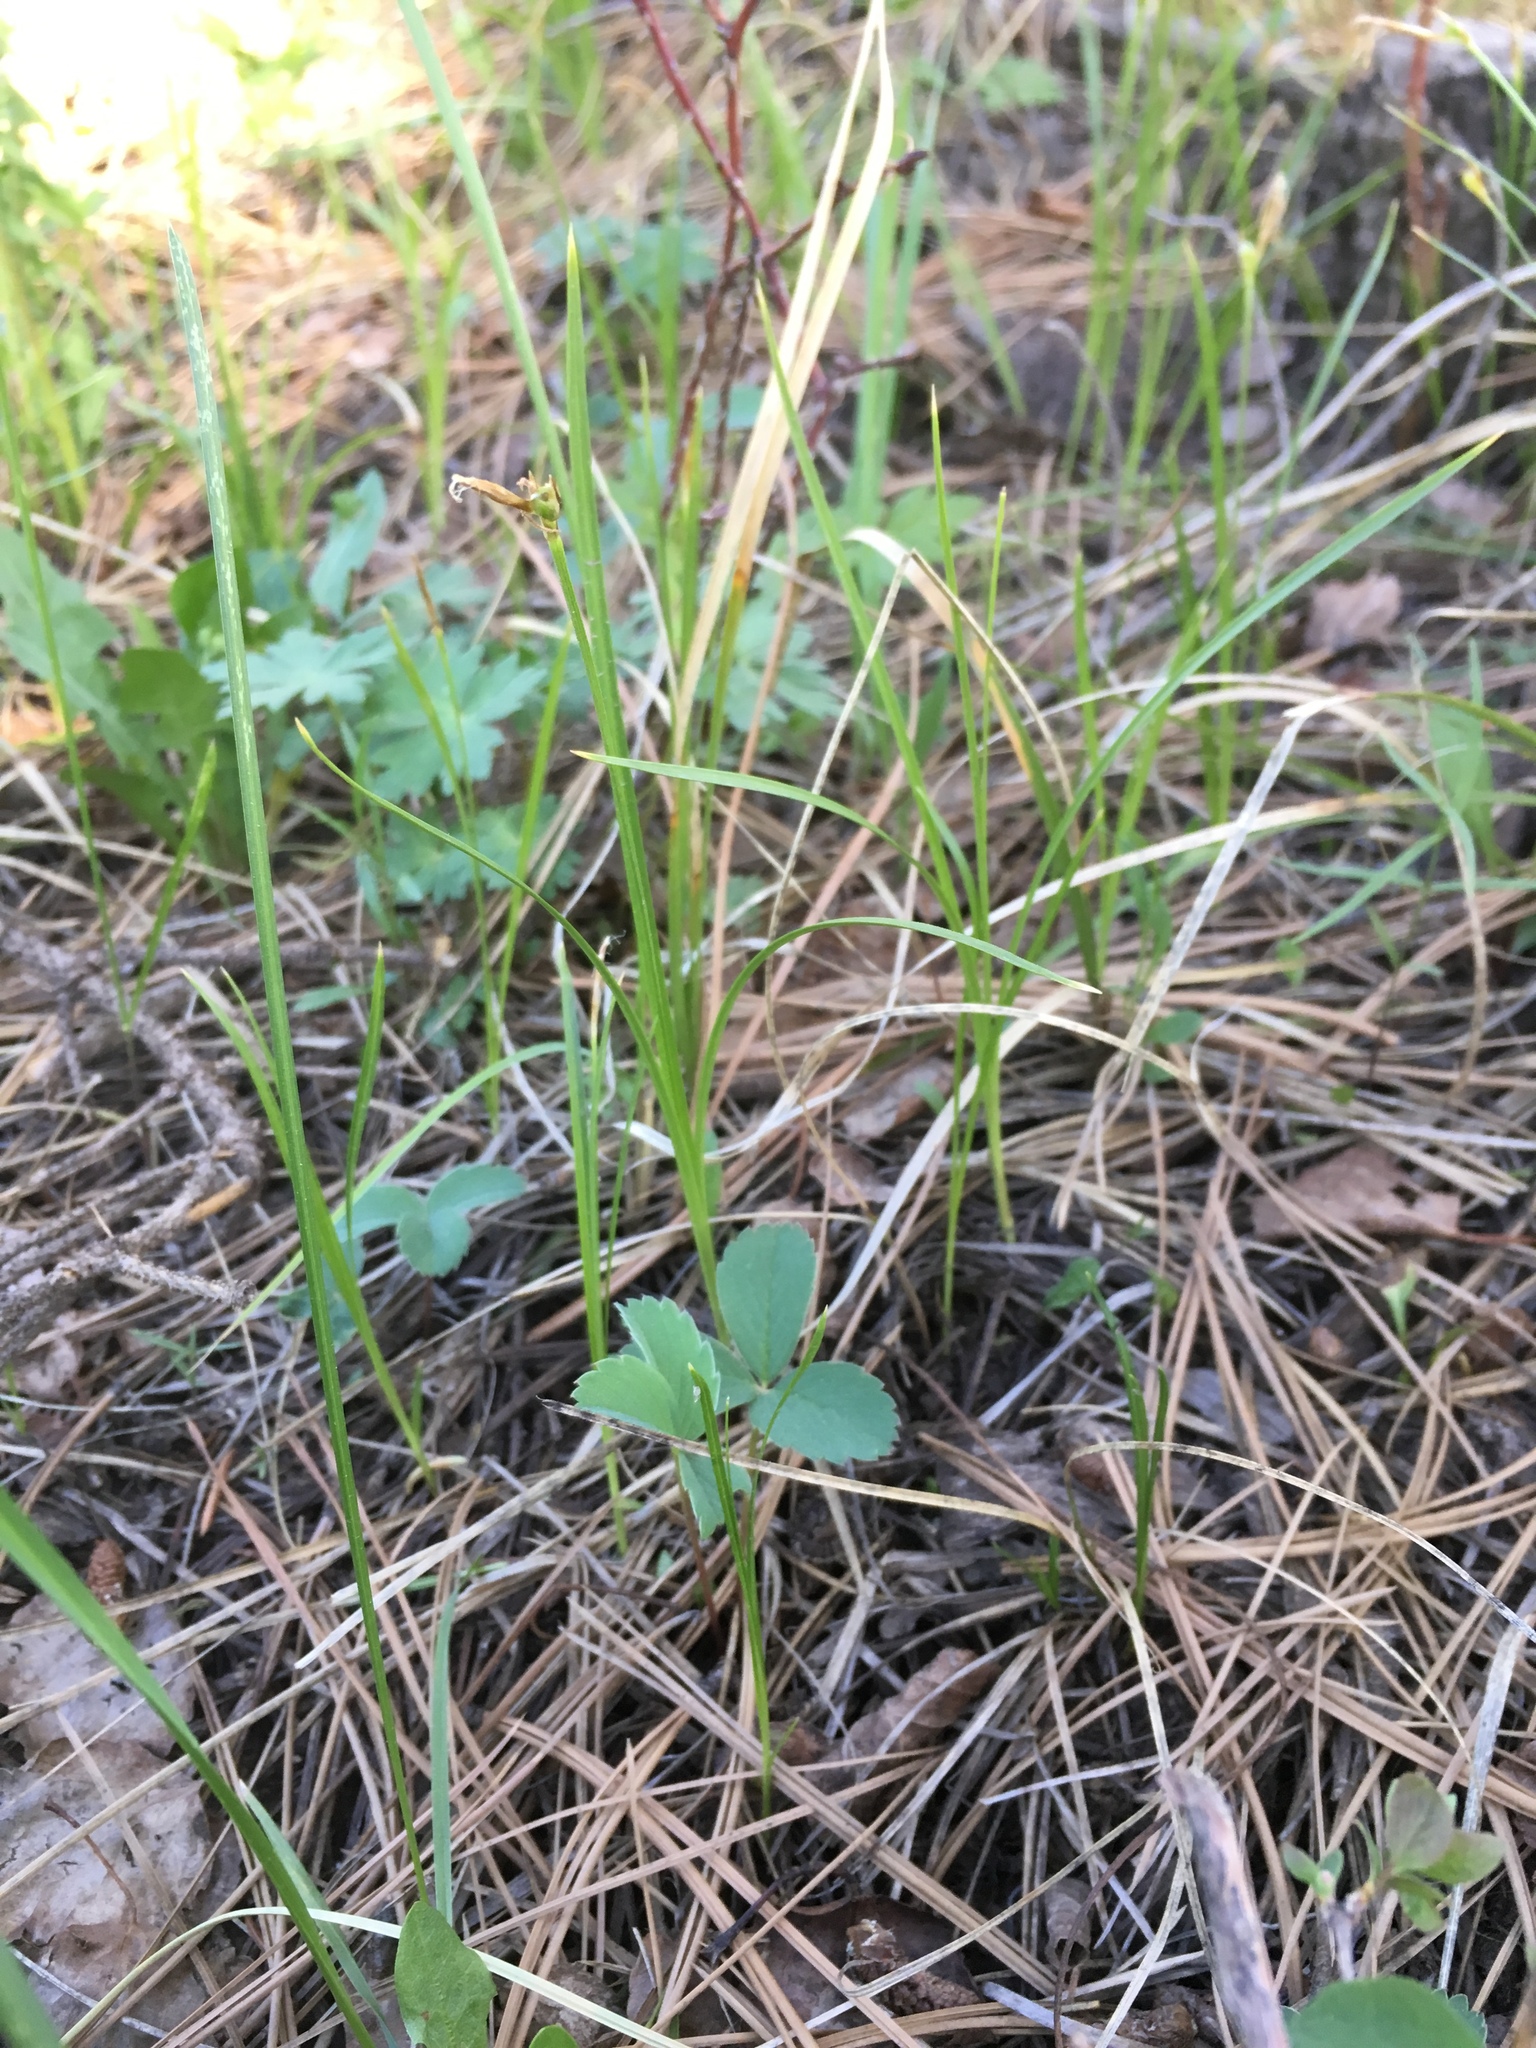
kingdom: Plantae
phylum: Tracheophyta
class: Liliopsida
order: Poales
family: Cyperaceae
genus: Carex
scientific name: Carex geyeri
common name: Elk sedge
